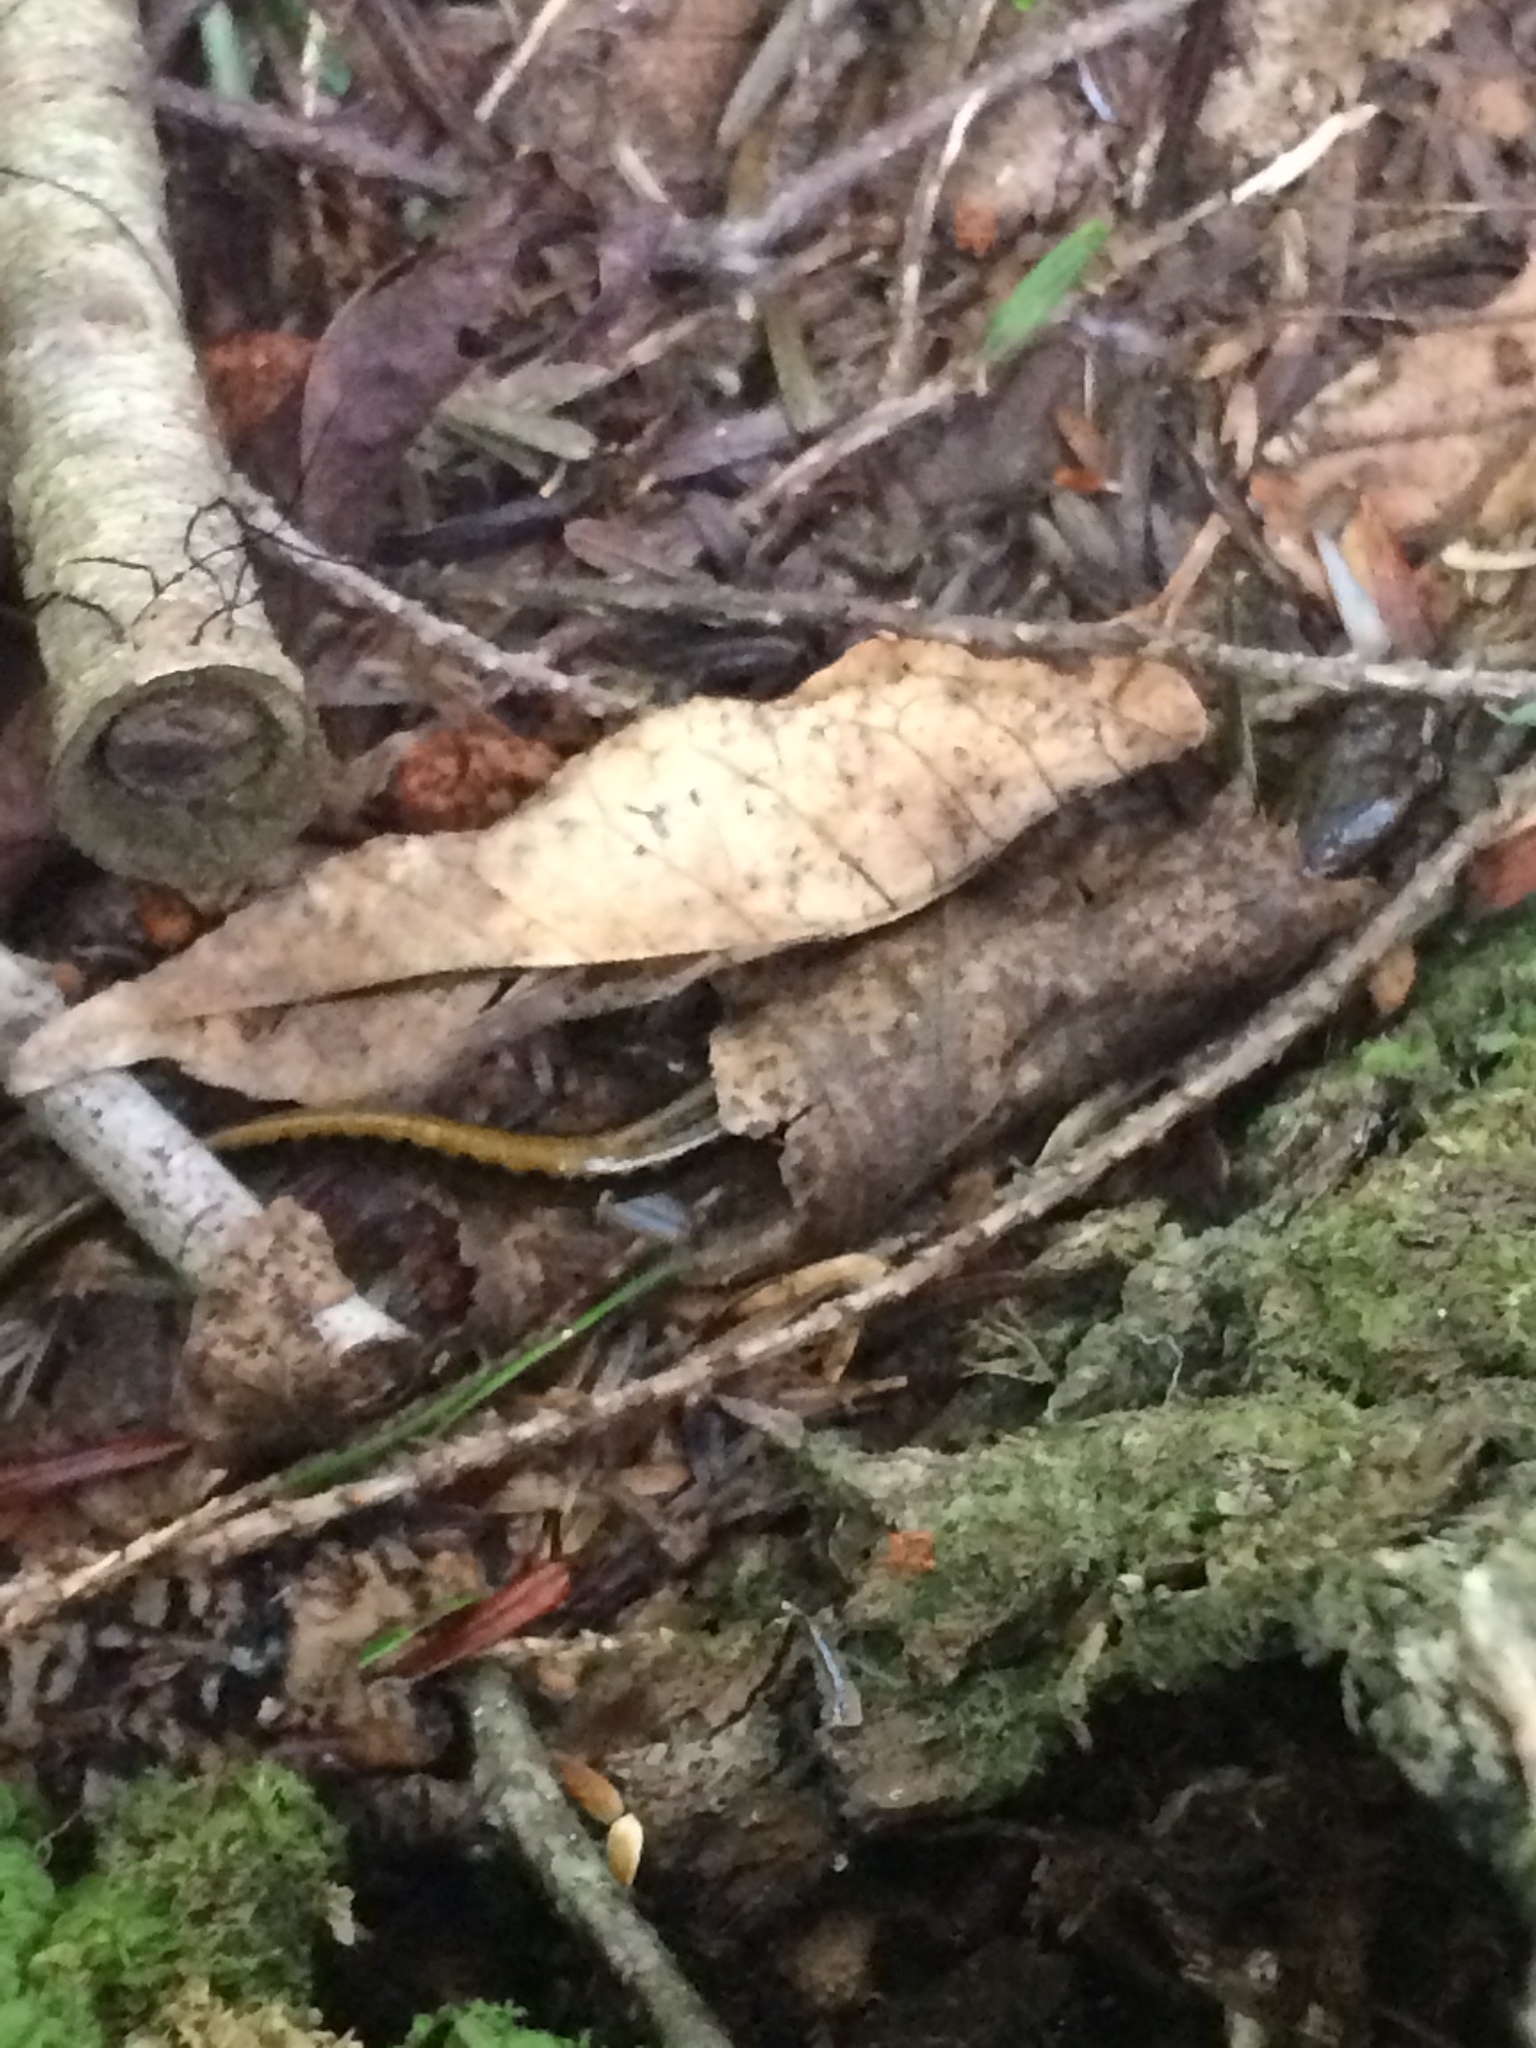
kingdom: Animalia
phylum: Chordata
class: Amphibia
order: Caudata
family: Plethodontidae
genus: Eurycea
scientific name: Eurycea bislineata
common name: Northern two-lined salamander
